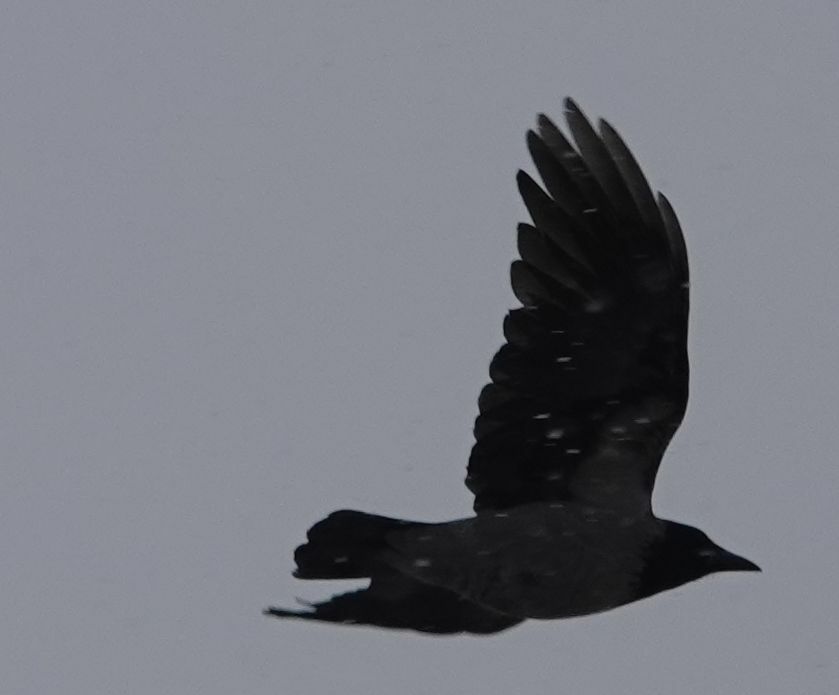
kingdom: Animalia
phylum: Chordata
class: Aves
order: Passeriformes
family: Corvidae
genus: Corvus
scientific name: Corvus cornix
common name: Hooded crow
